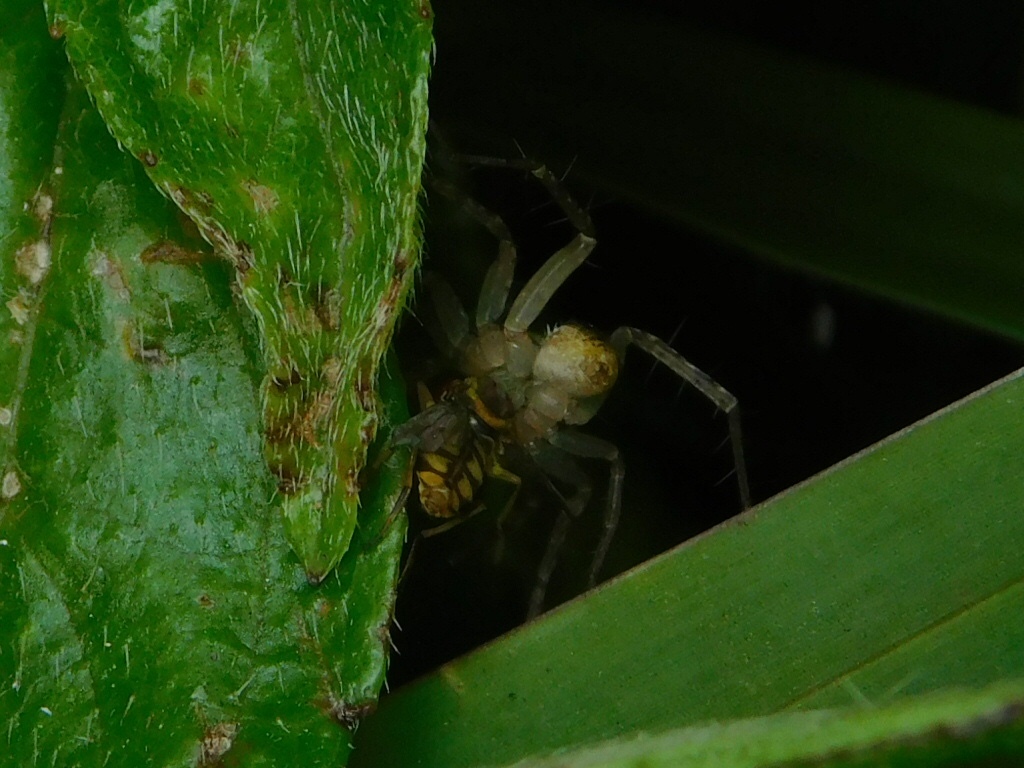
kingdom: Animalia
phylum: Arthropoda
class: Insecta
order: Diptera
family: Syrphidae
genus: Toxomerus
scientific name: Toxomerus floralis
